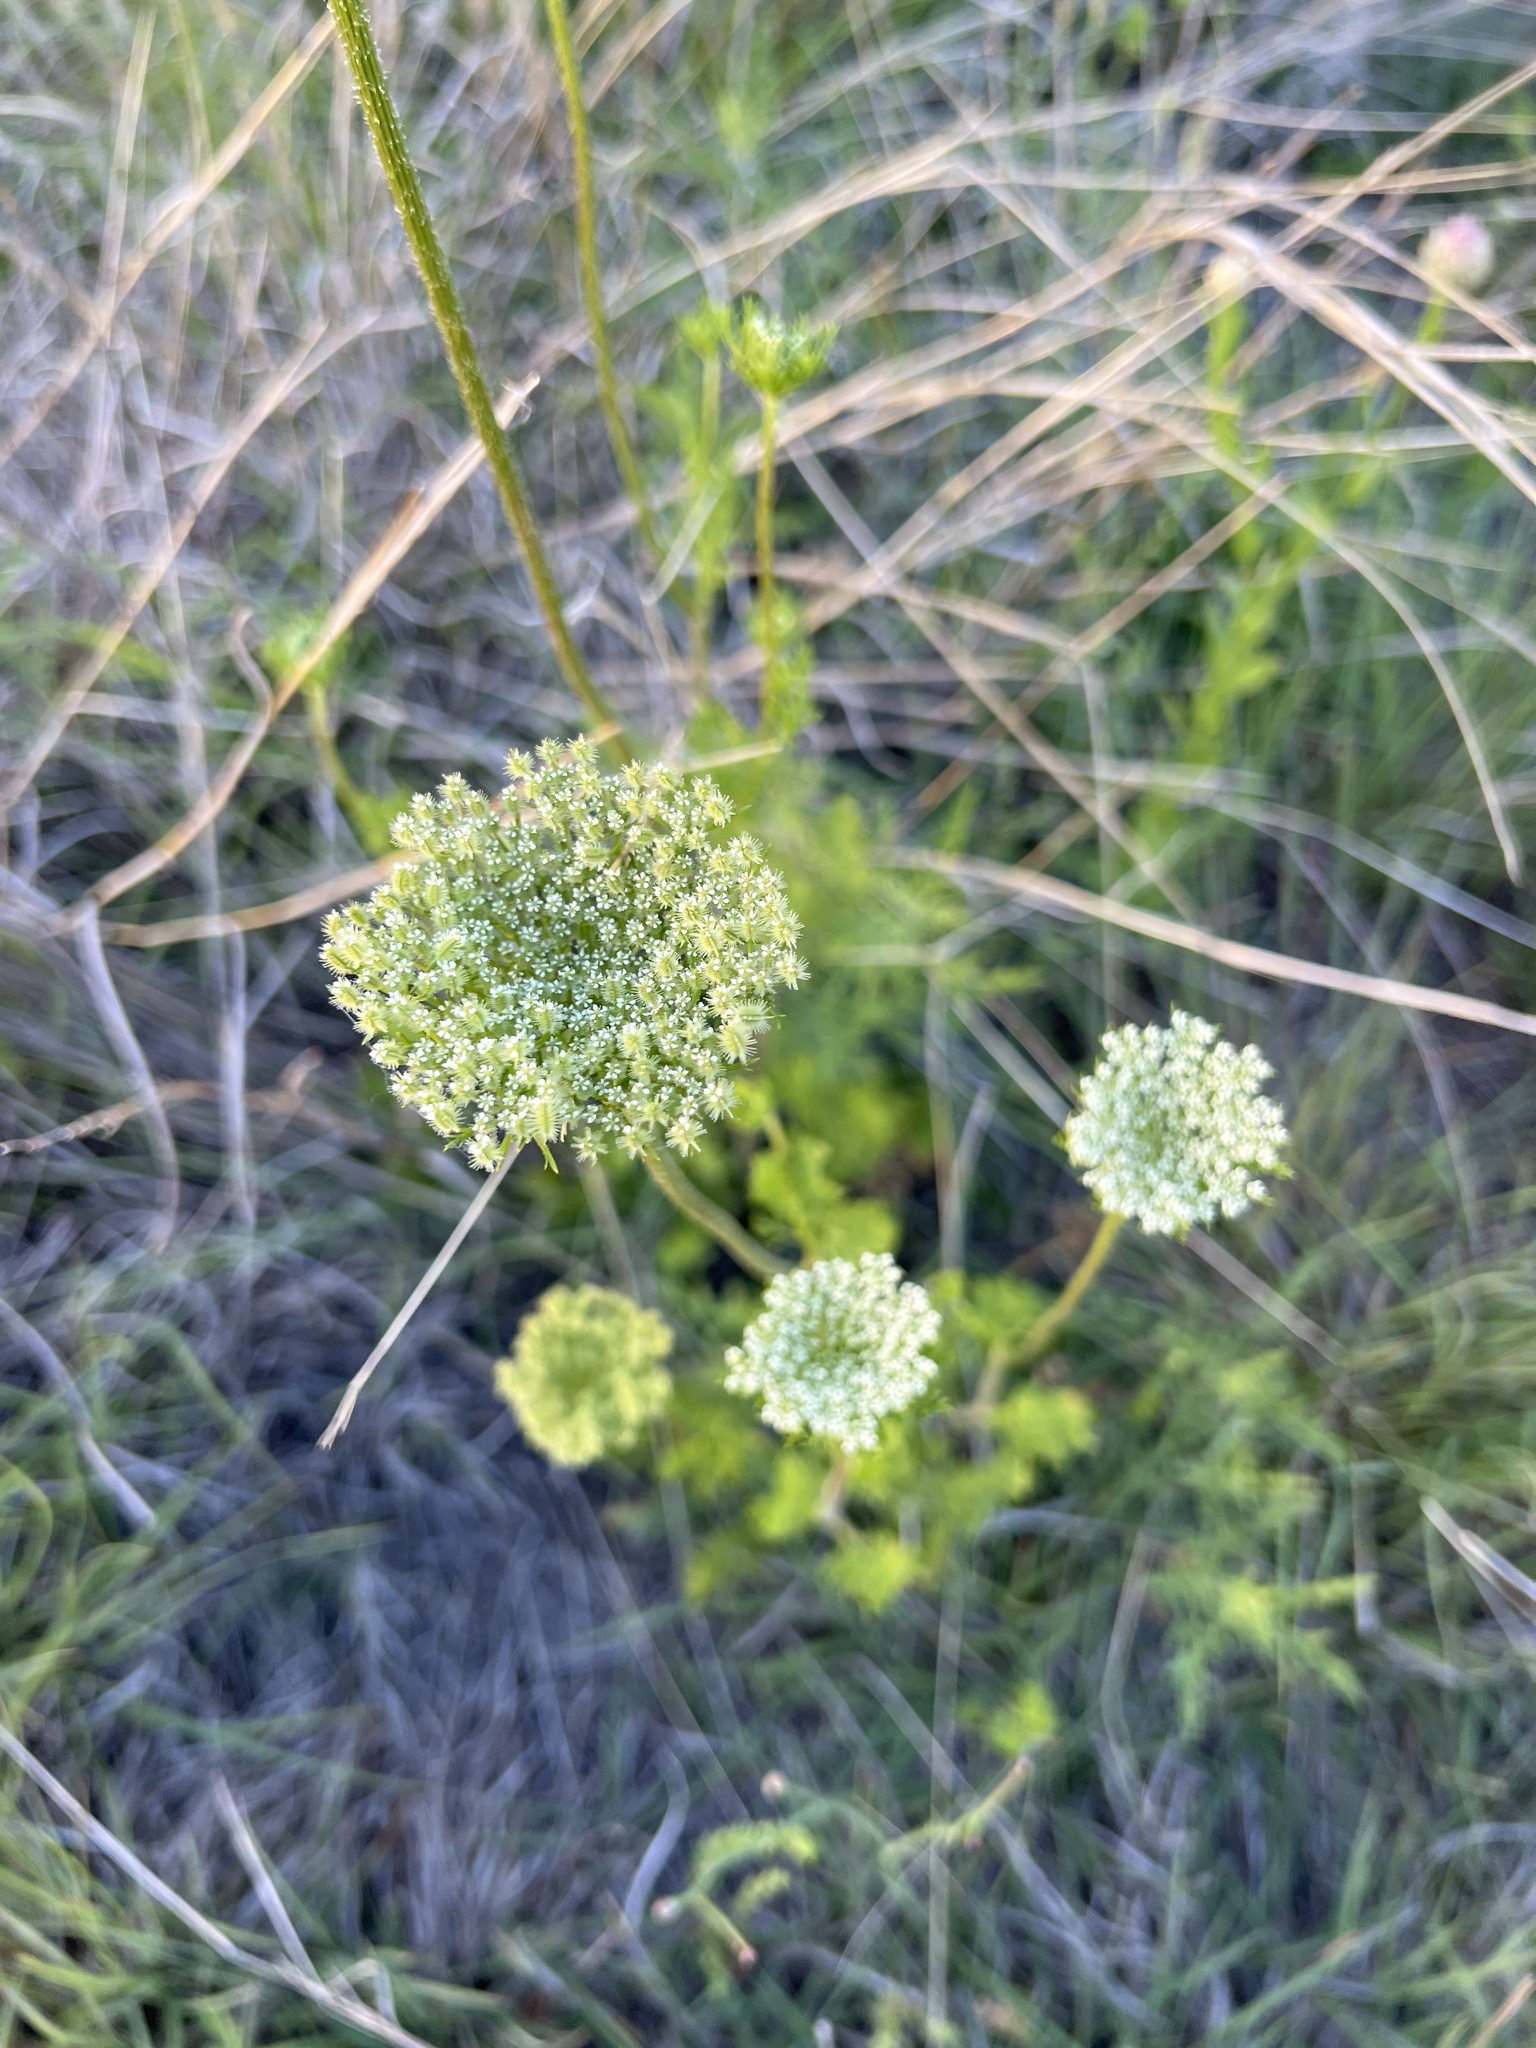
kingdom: Plantae
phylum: Tracheophyta
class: Magnoliopsida
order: Apiales
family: Apiaceae
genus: Daucus
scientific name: Daucus pusillus
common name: Southwest wild carrot
